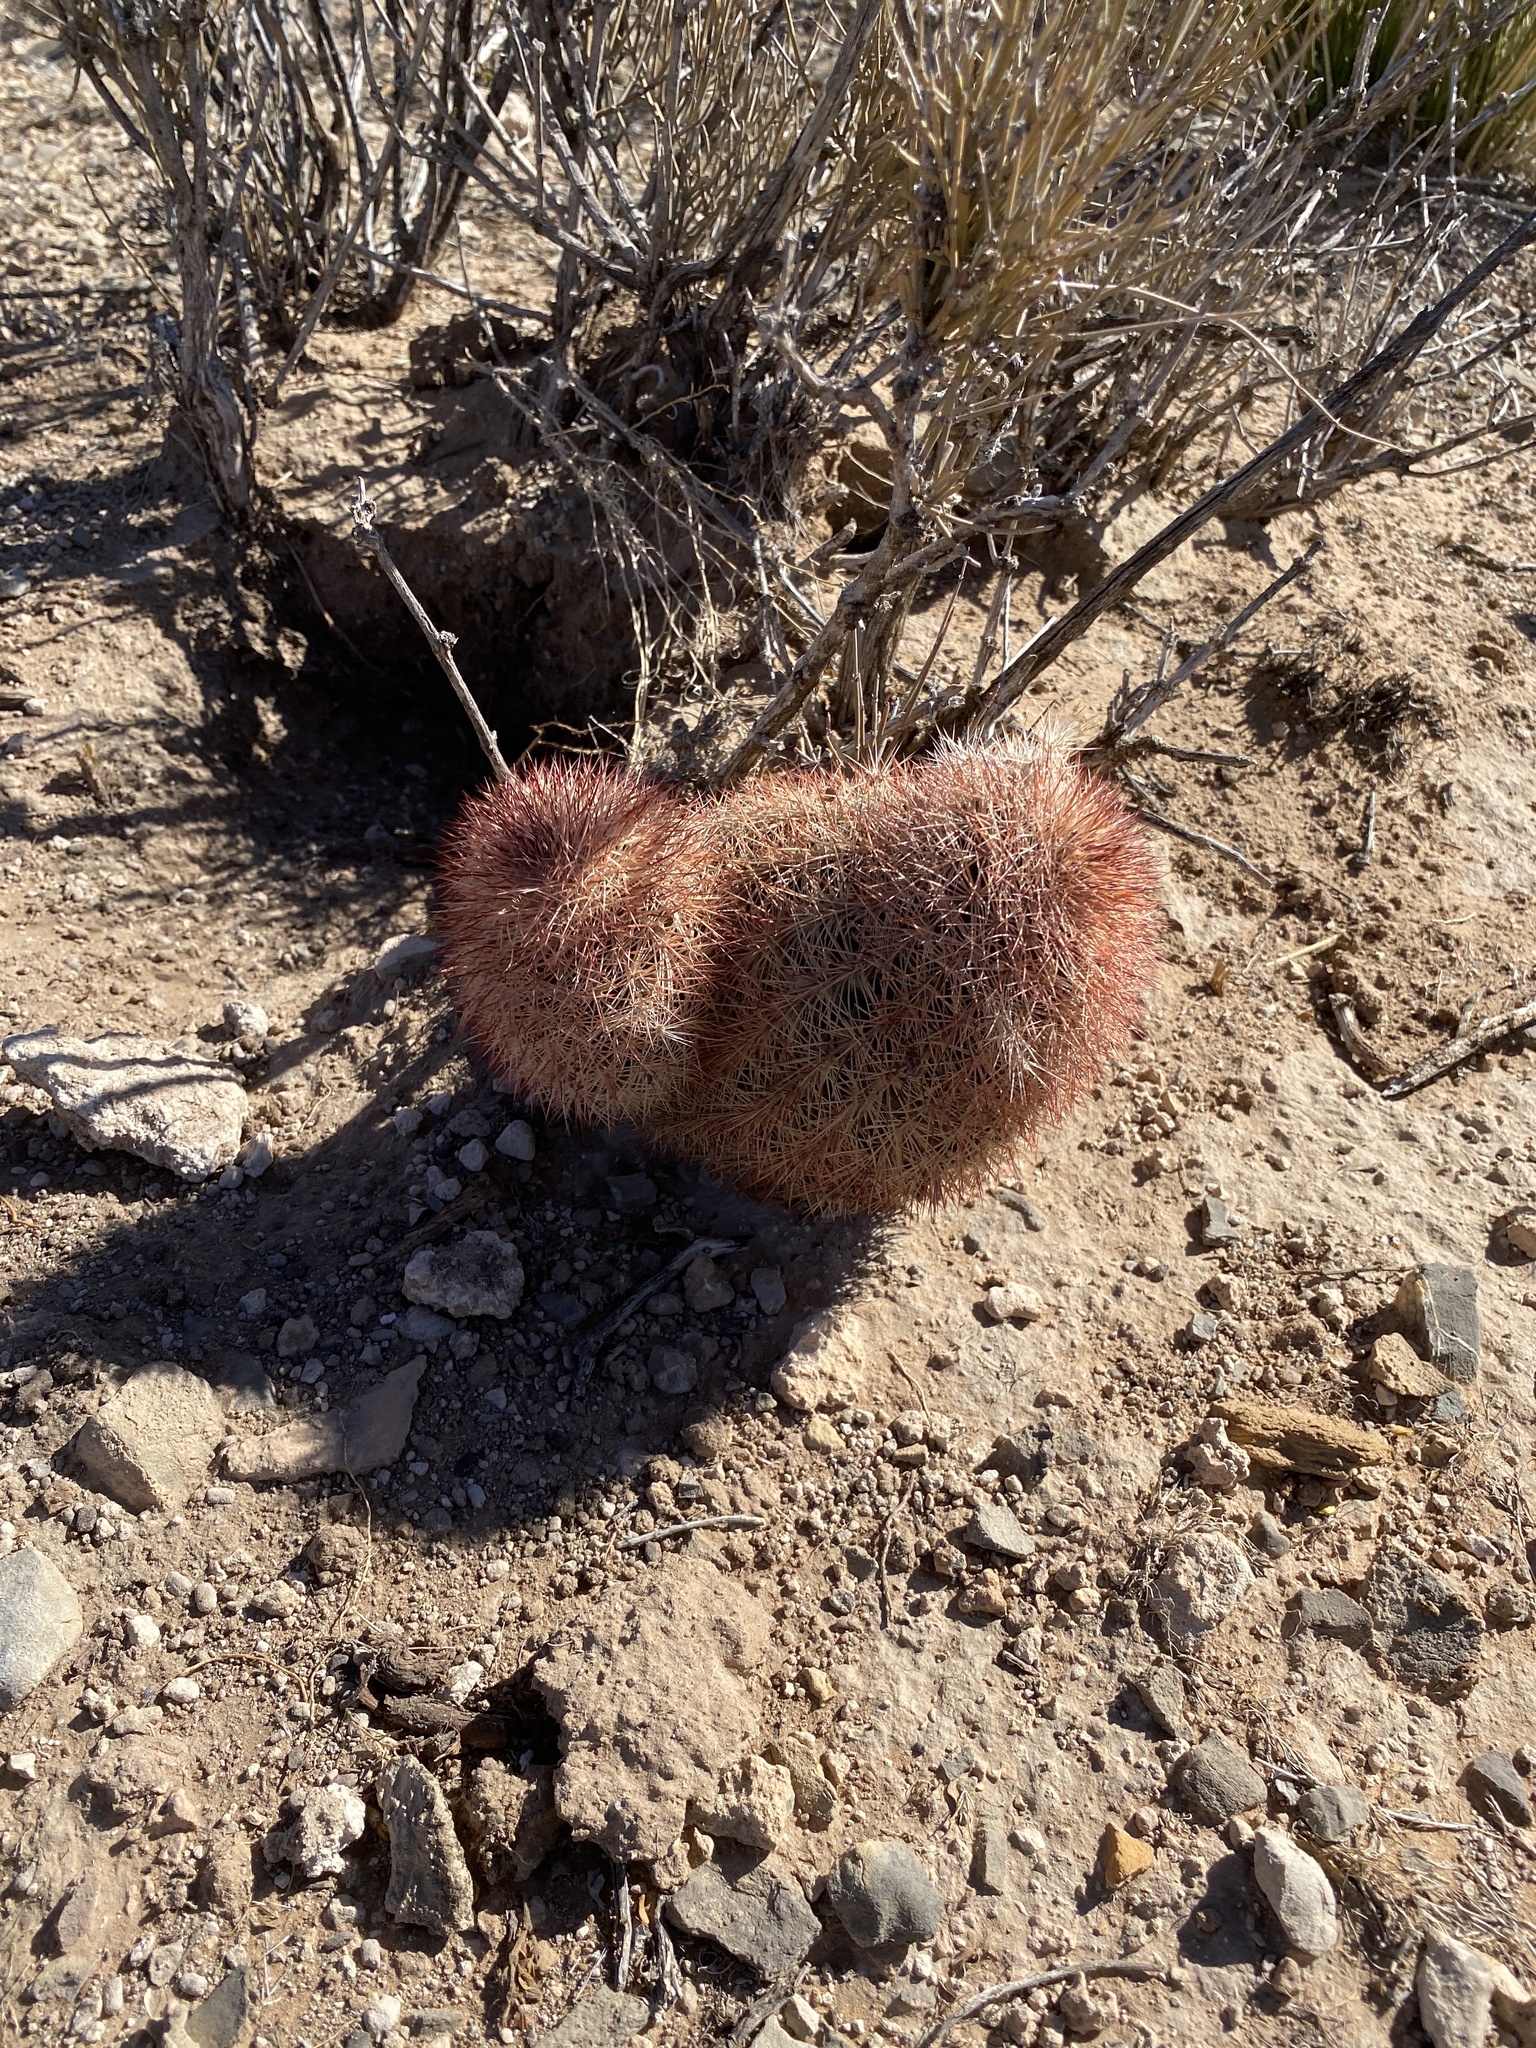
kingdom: Plantae
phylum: Tracheophyta
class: Magnoliopsida
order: Caryophyllales
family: Cactaceae
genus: Echinocereus
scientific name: Echinocereus dasyacanthus
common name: Spiny hedgehog cactus
